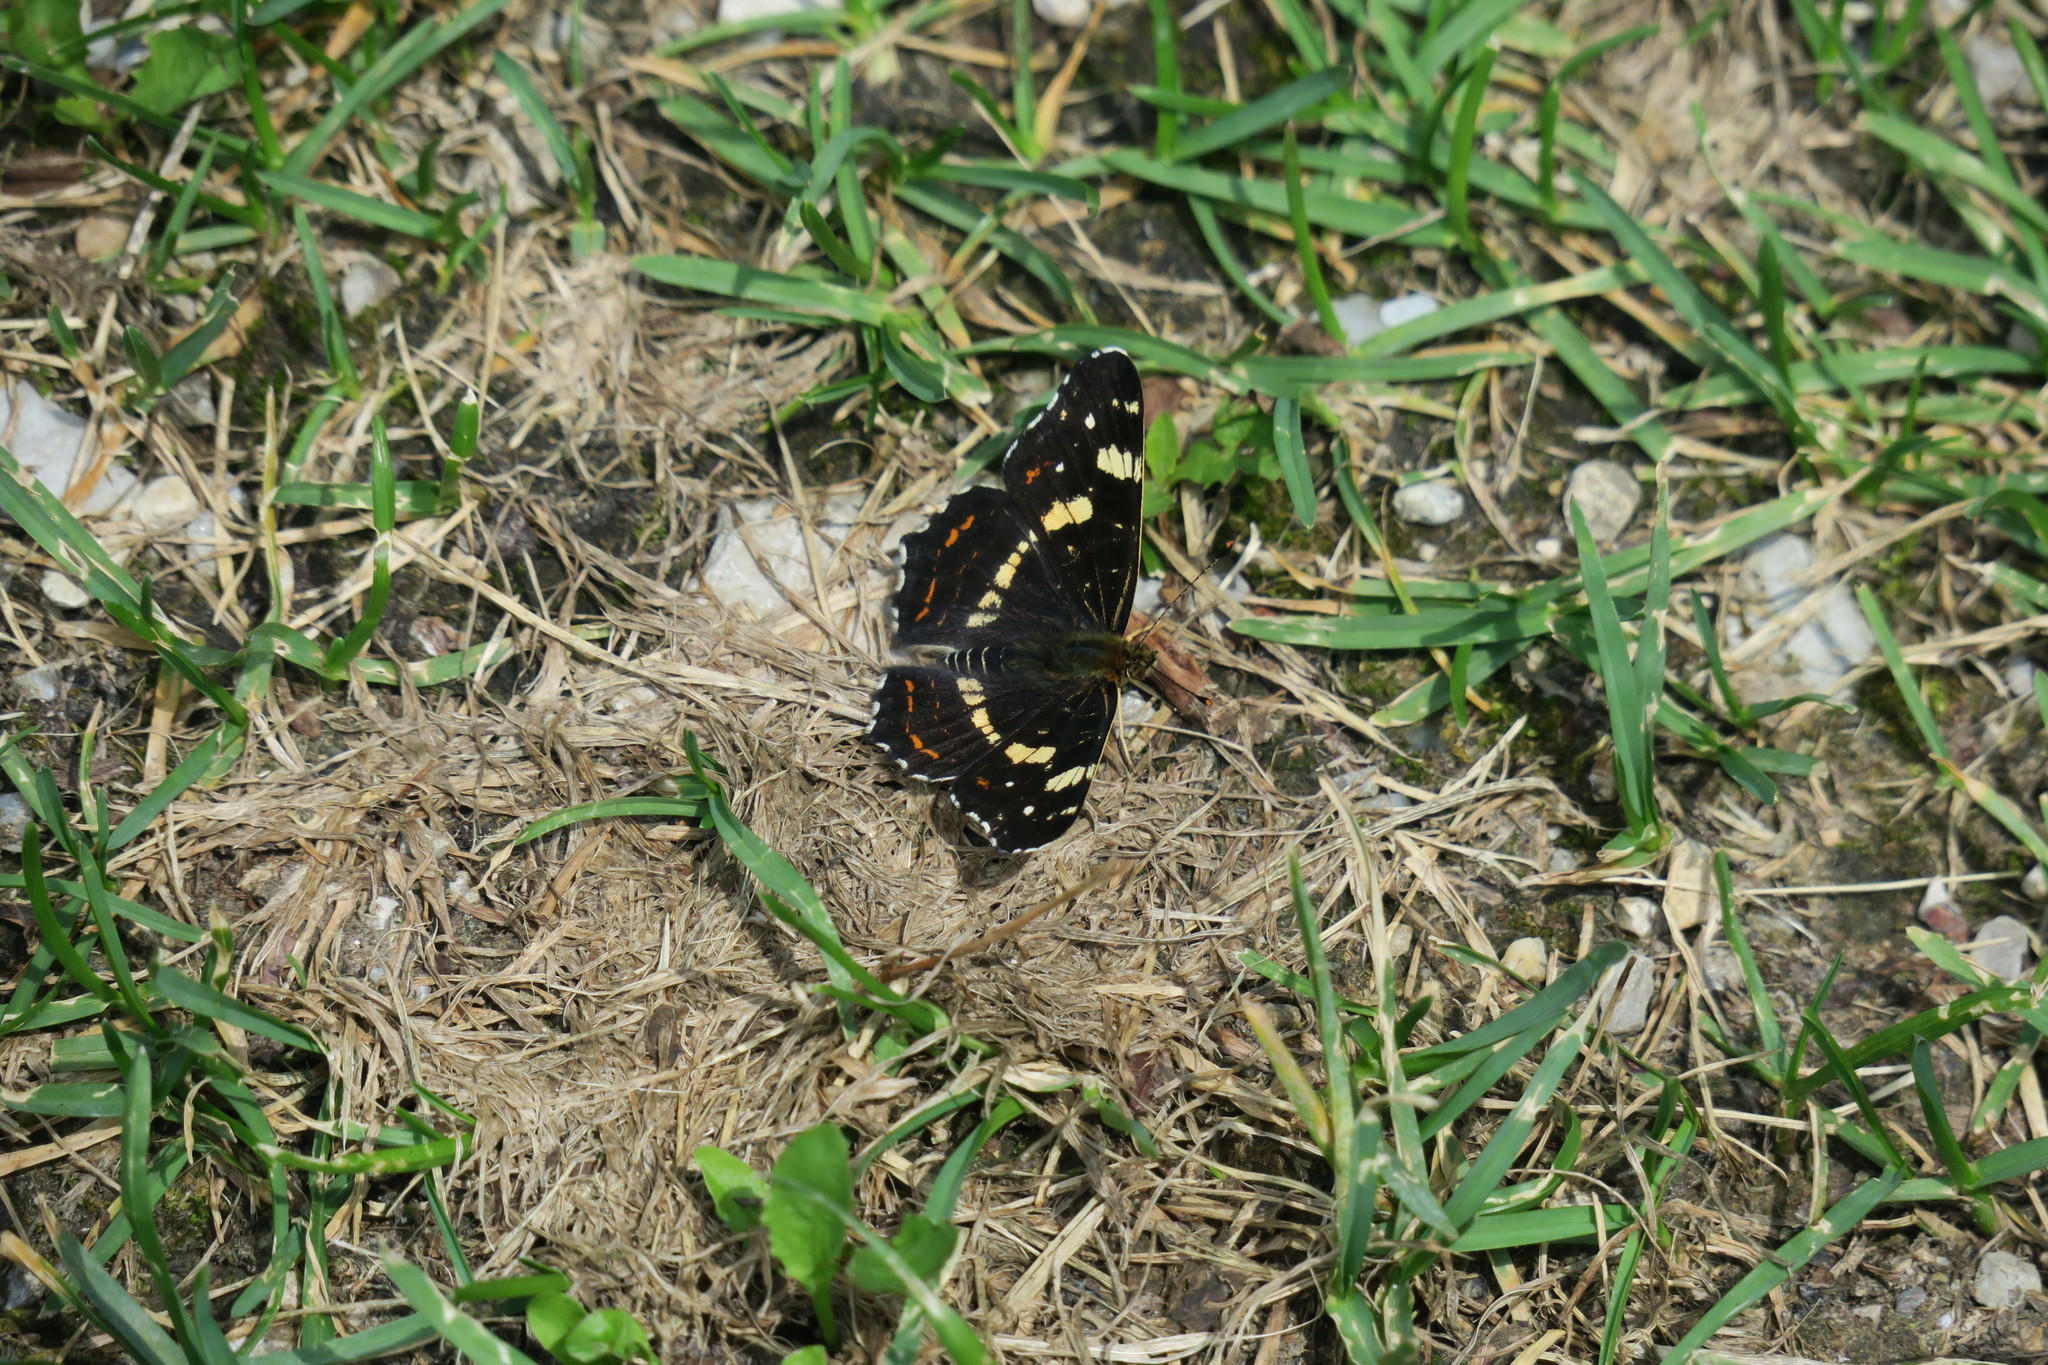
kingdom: Animalia
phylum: Arthropoda
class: Insecta
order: Lepidoptera
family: Nymphalidae
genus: Araschnia
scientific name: Araschnia levana
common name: Map butterfly
